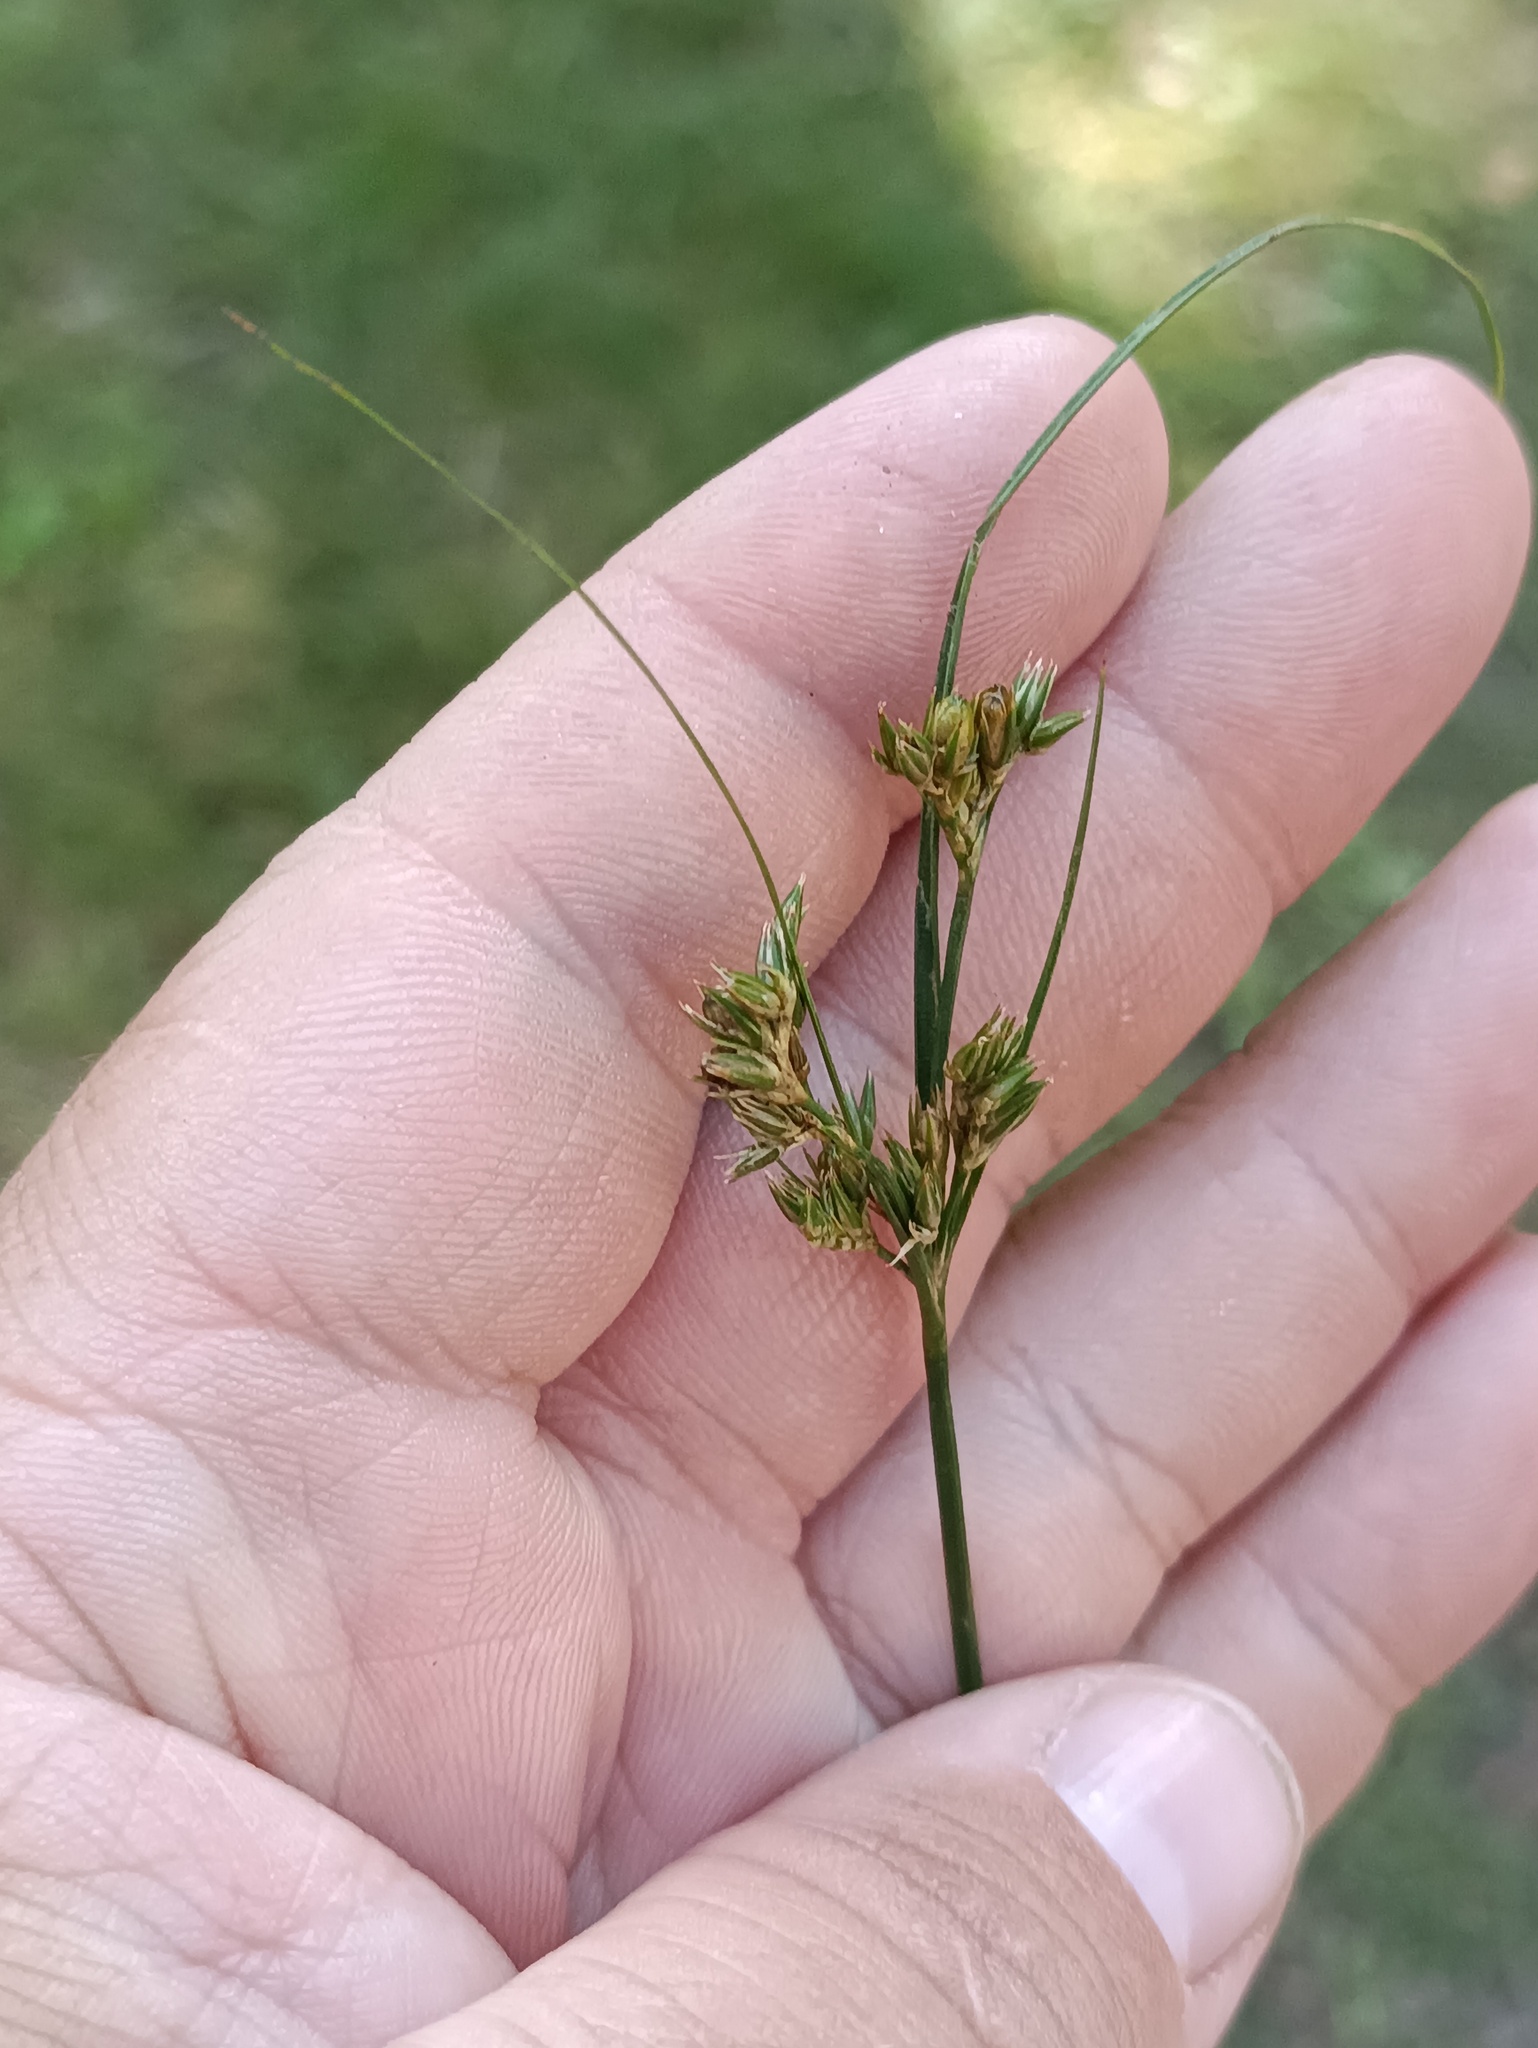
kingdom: Plantae
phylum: Tracheophyta
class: Liliopsida
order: Poales
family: Juncaceae
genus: Juncus
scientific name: Juncus tenuis
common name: Slender rush
